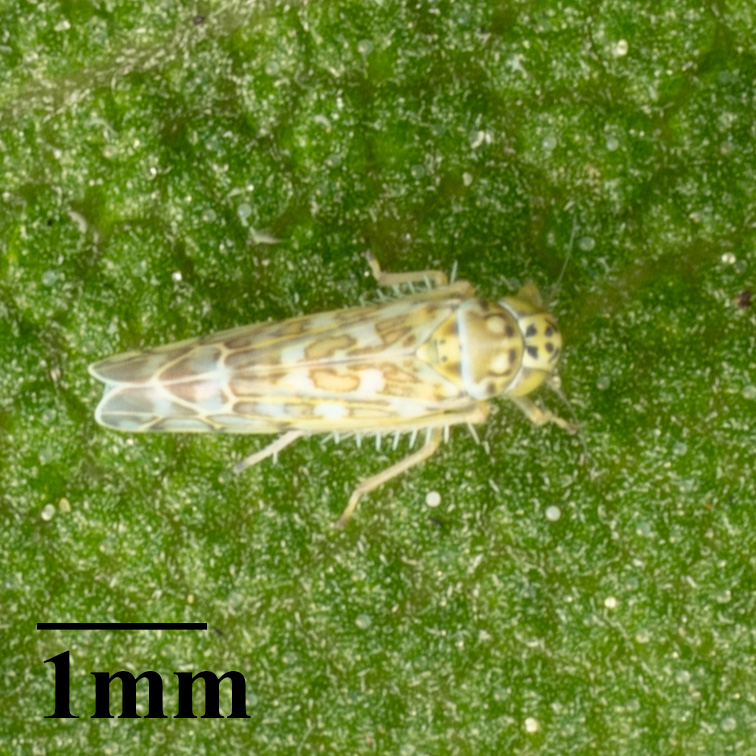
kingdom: Animalia
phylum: Arthropoda
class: Insecta
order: Hemiptera
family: Cicadellidae
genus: Eupteryx
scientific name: Eupteryx decemnotata
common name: Ligurian leafhopper
